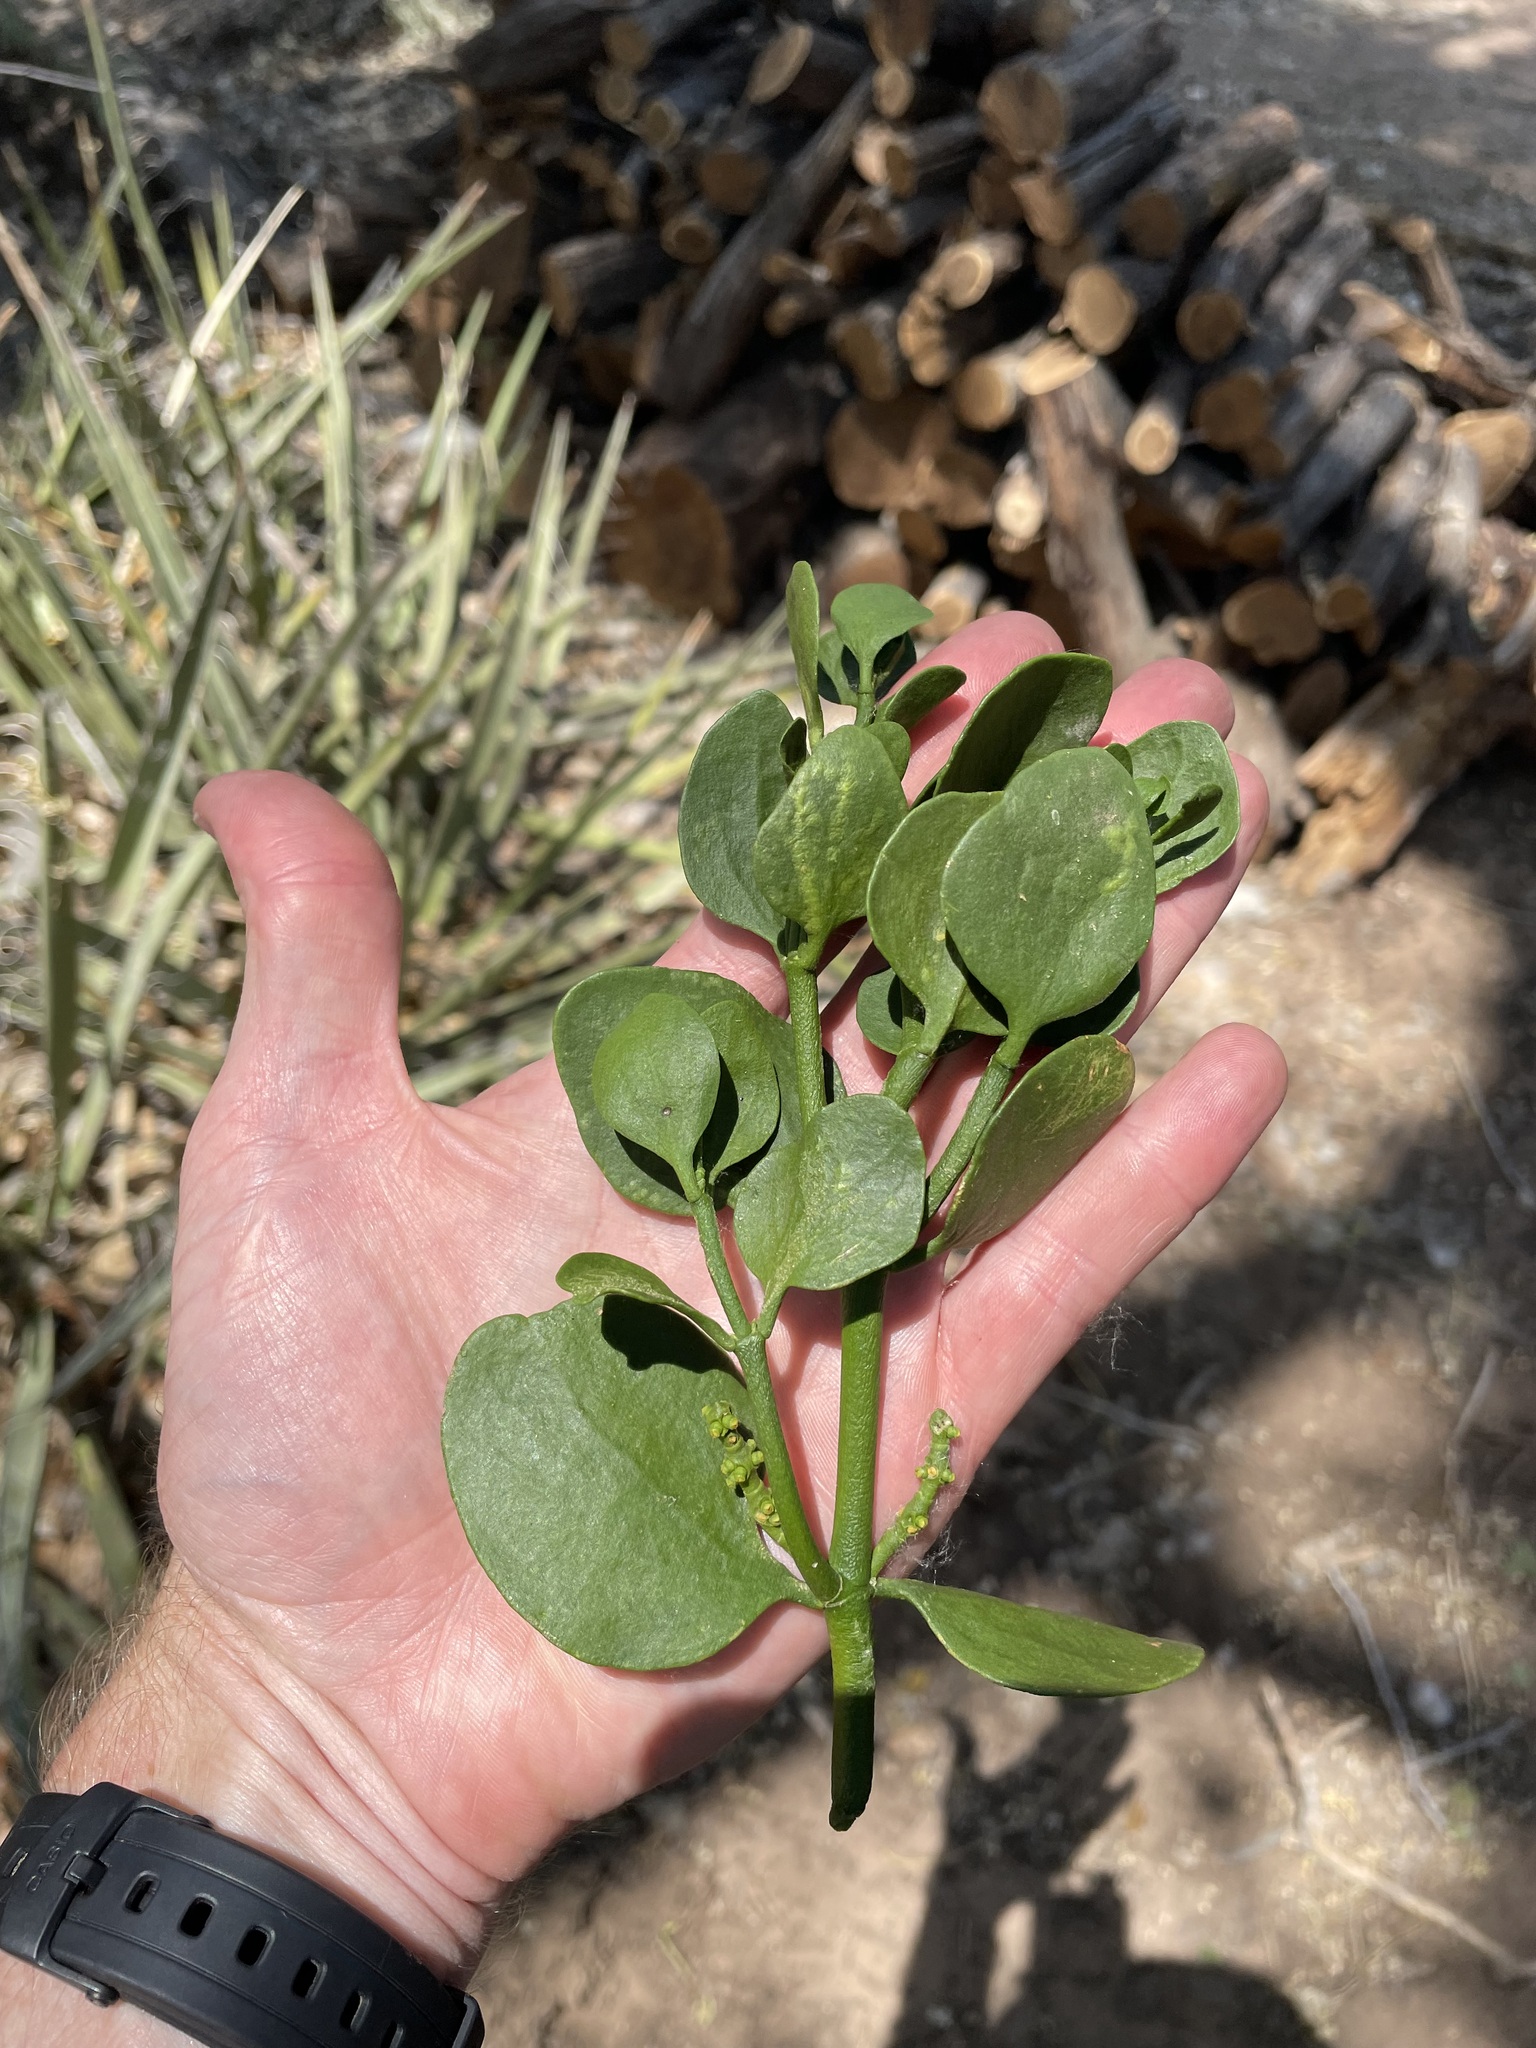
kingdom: Plantae
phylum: Tracheophyta
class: Magnoliopsida
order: Santalales
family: Viscaceae
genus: Phoradendron
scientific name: Phoradendron
